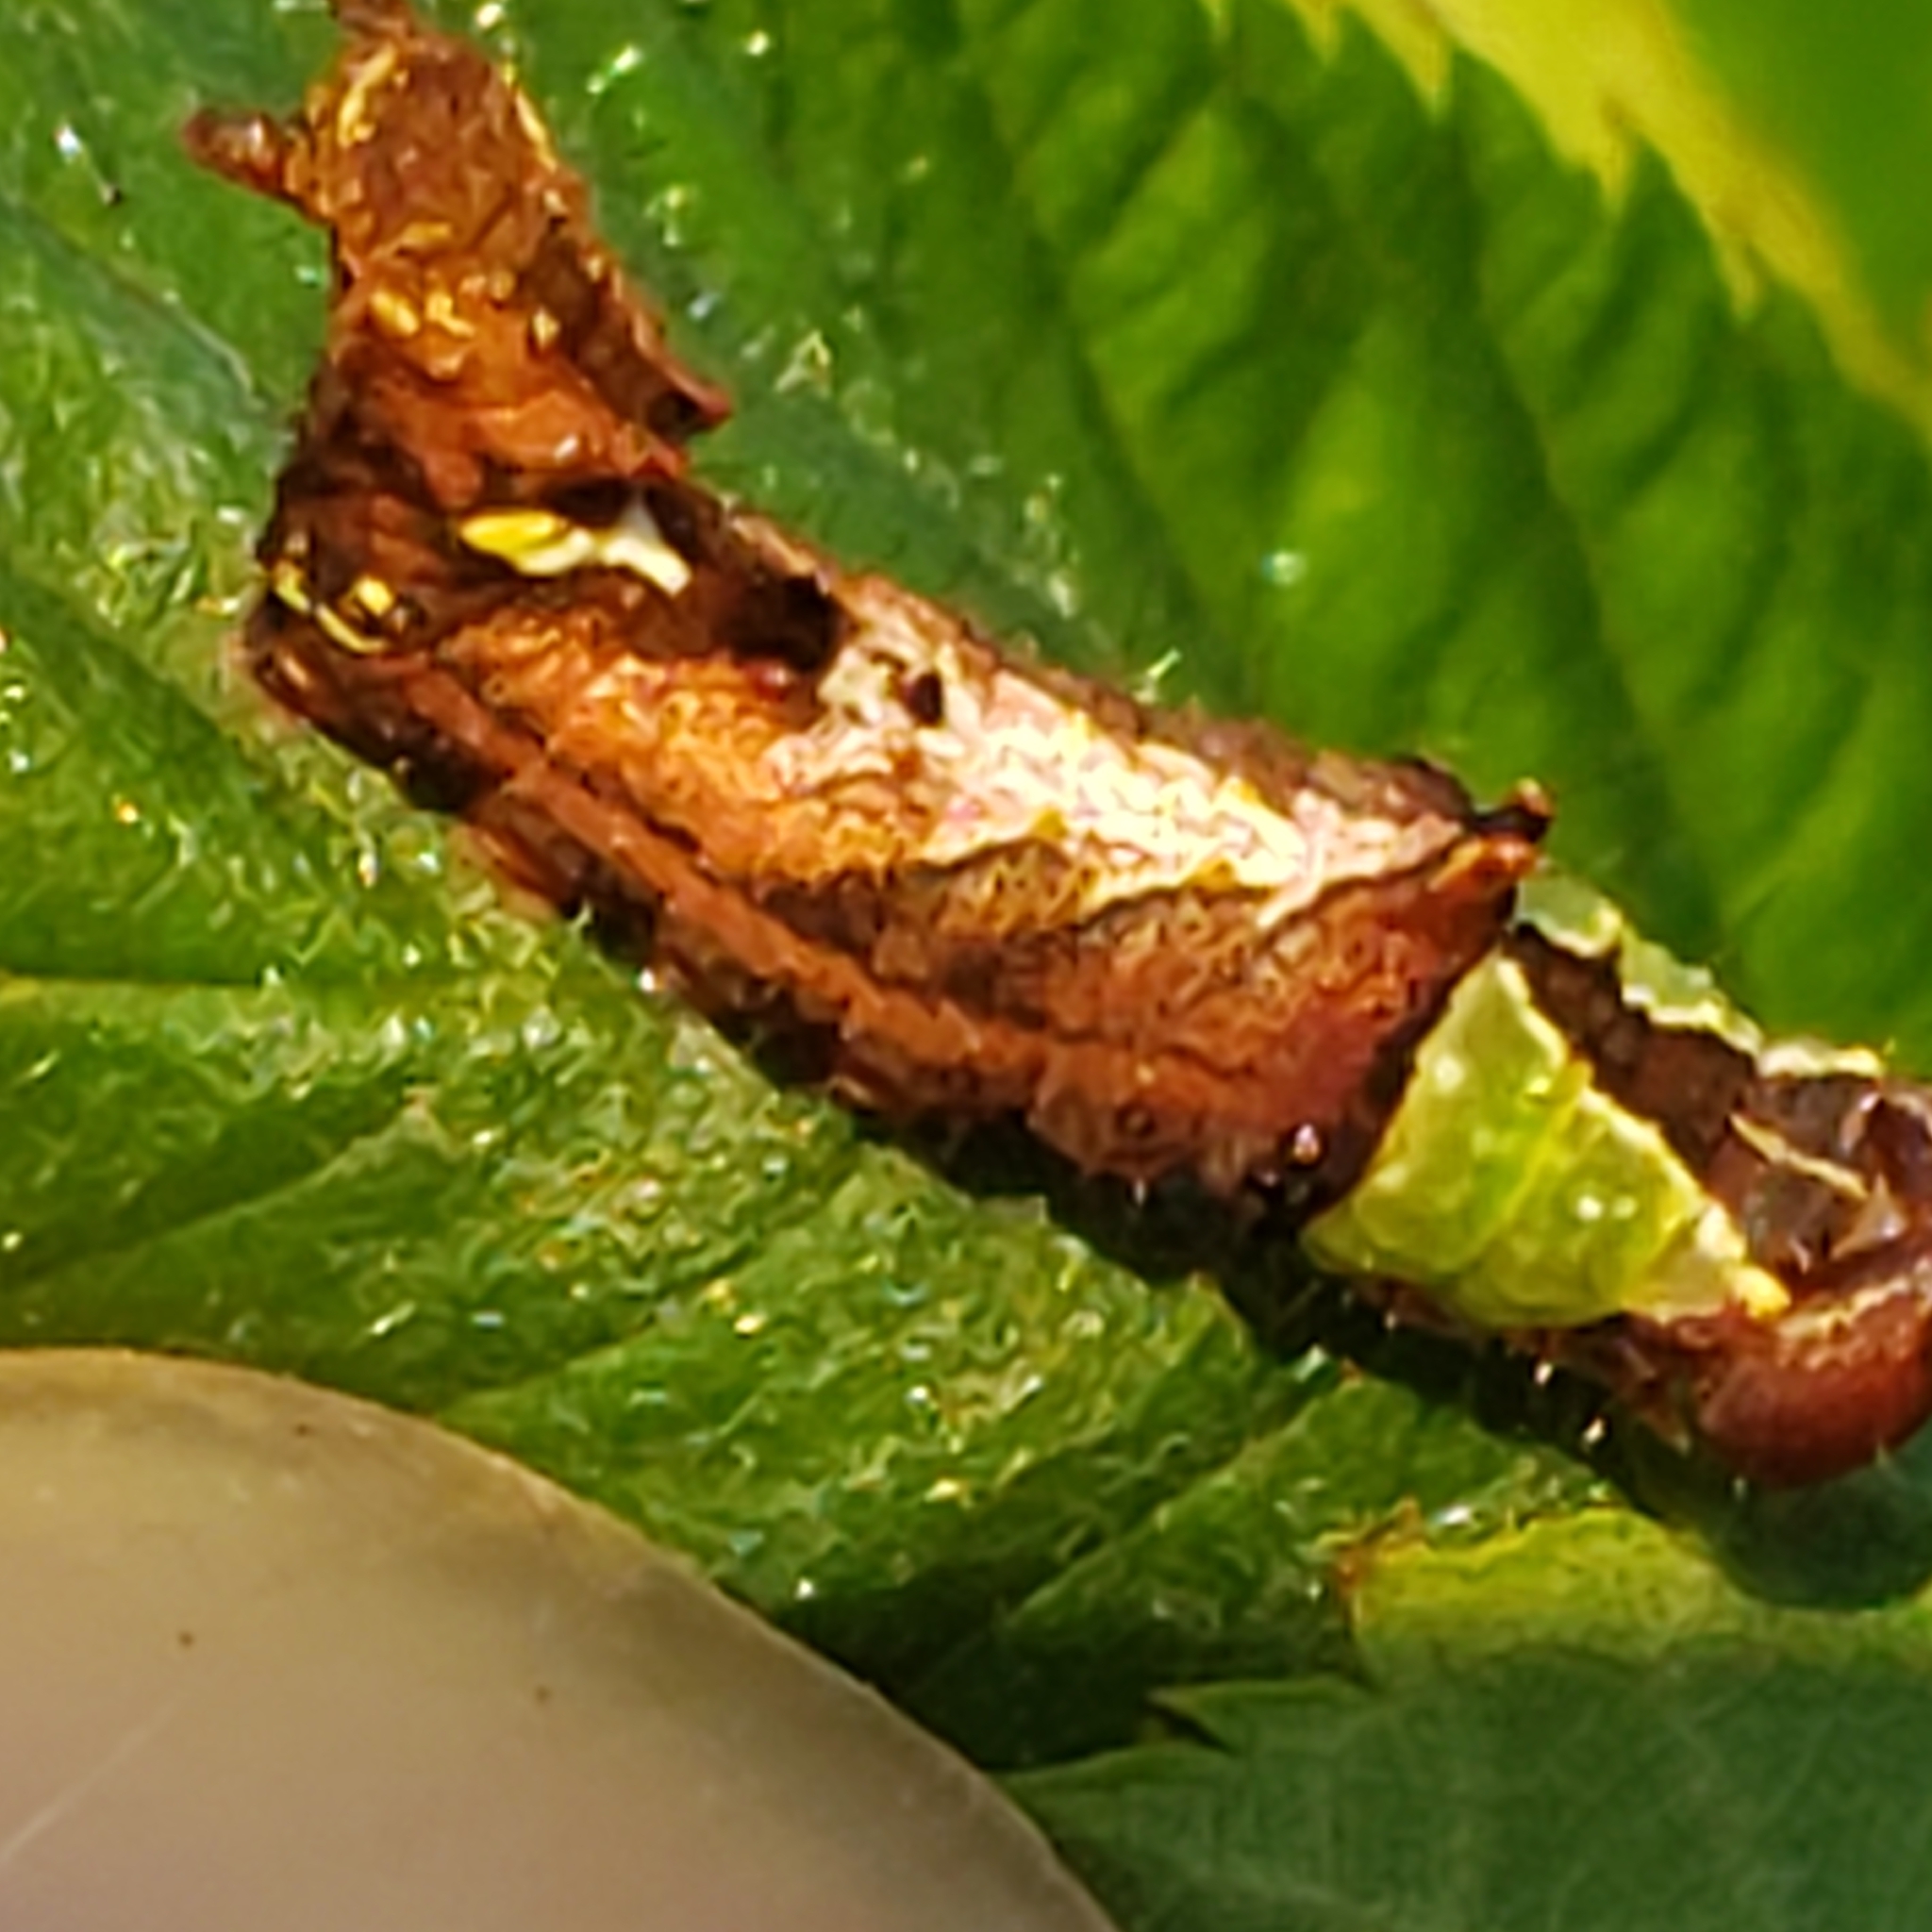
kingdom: Animalia
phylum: Arthropoda
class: Insecta
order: Lepidoptera
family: Notodontidae
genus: Schizura
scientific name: Schizura
